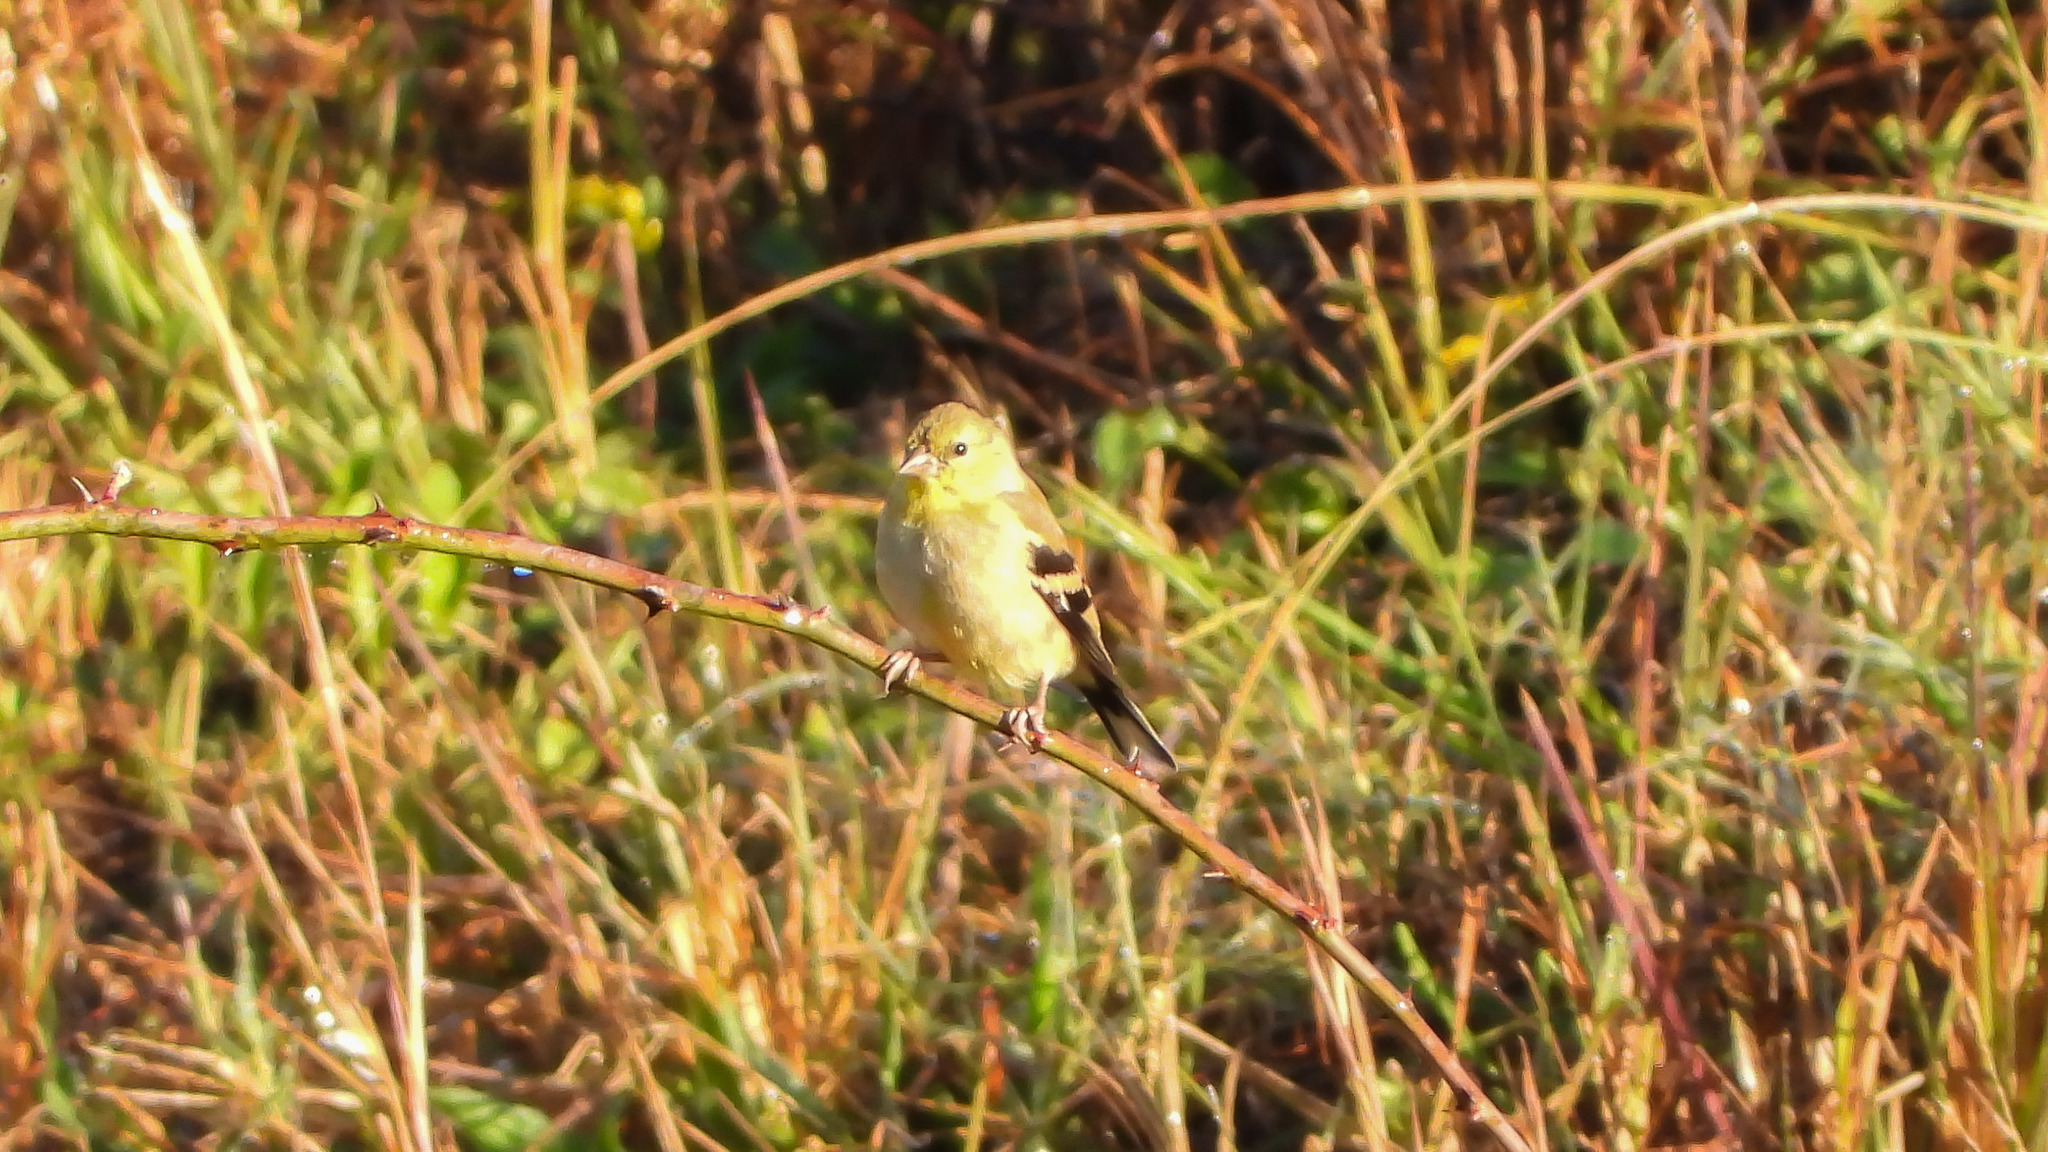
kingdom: Animalia
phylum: Chordata
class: Aves
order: Passeriformes
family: Fringillidae
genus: Spinus
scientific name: Spinus tristis
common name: American goldfinch
